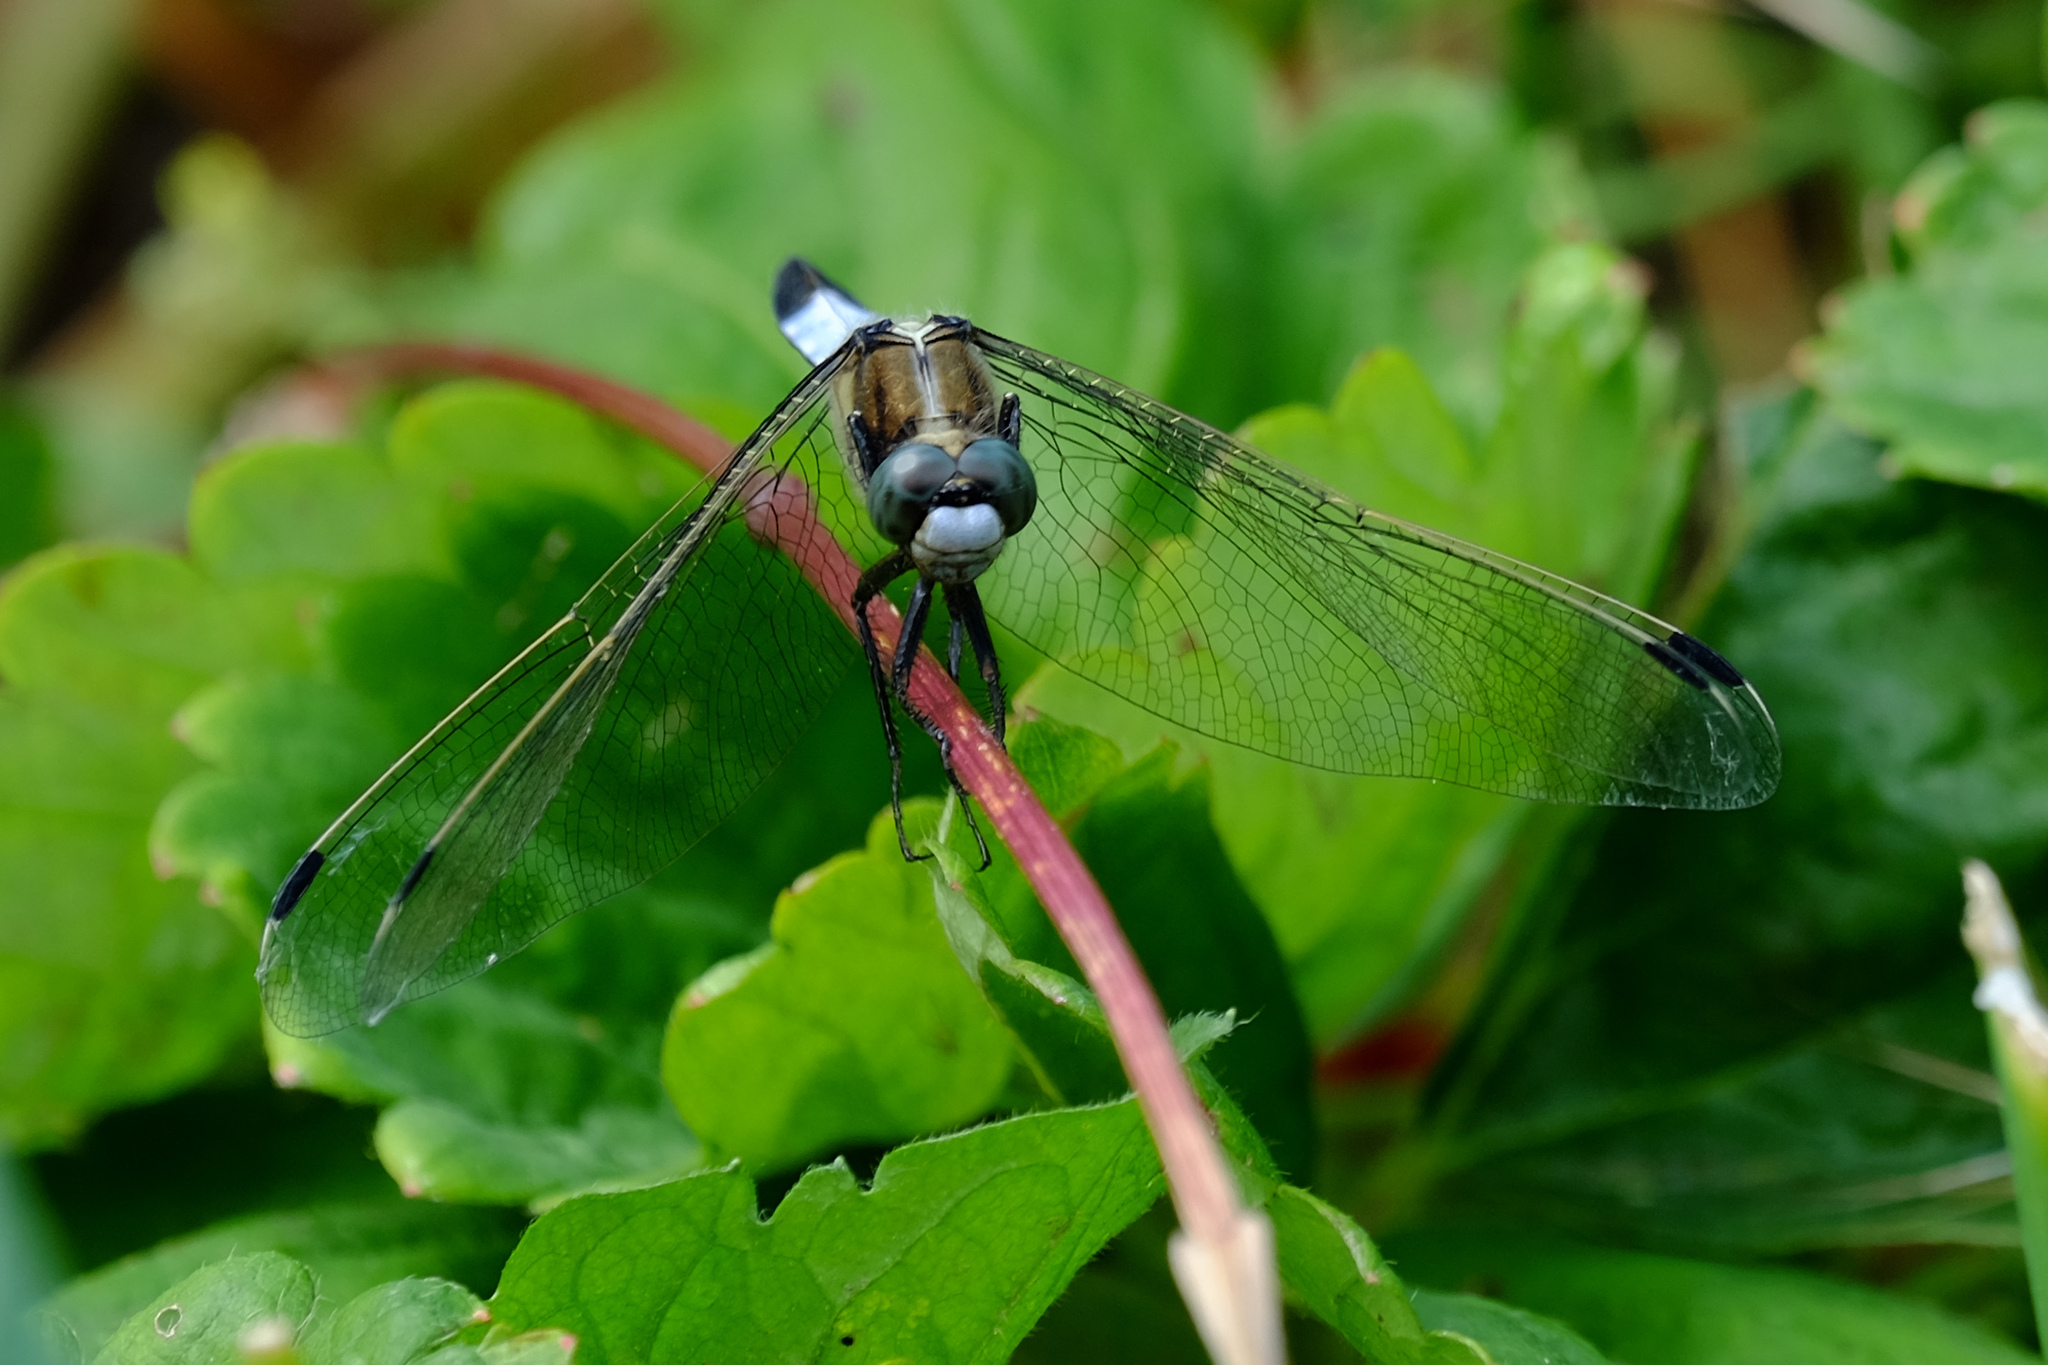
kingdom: Animalia
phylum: Arthropoda
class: Insecta
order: Odonata
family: Libellulidae
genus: Orthetrum
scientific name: Orthetrum albistylum
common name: White-tailed skimmer
